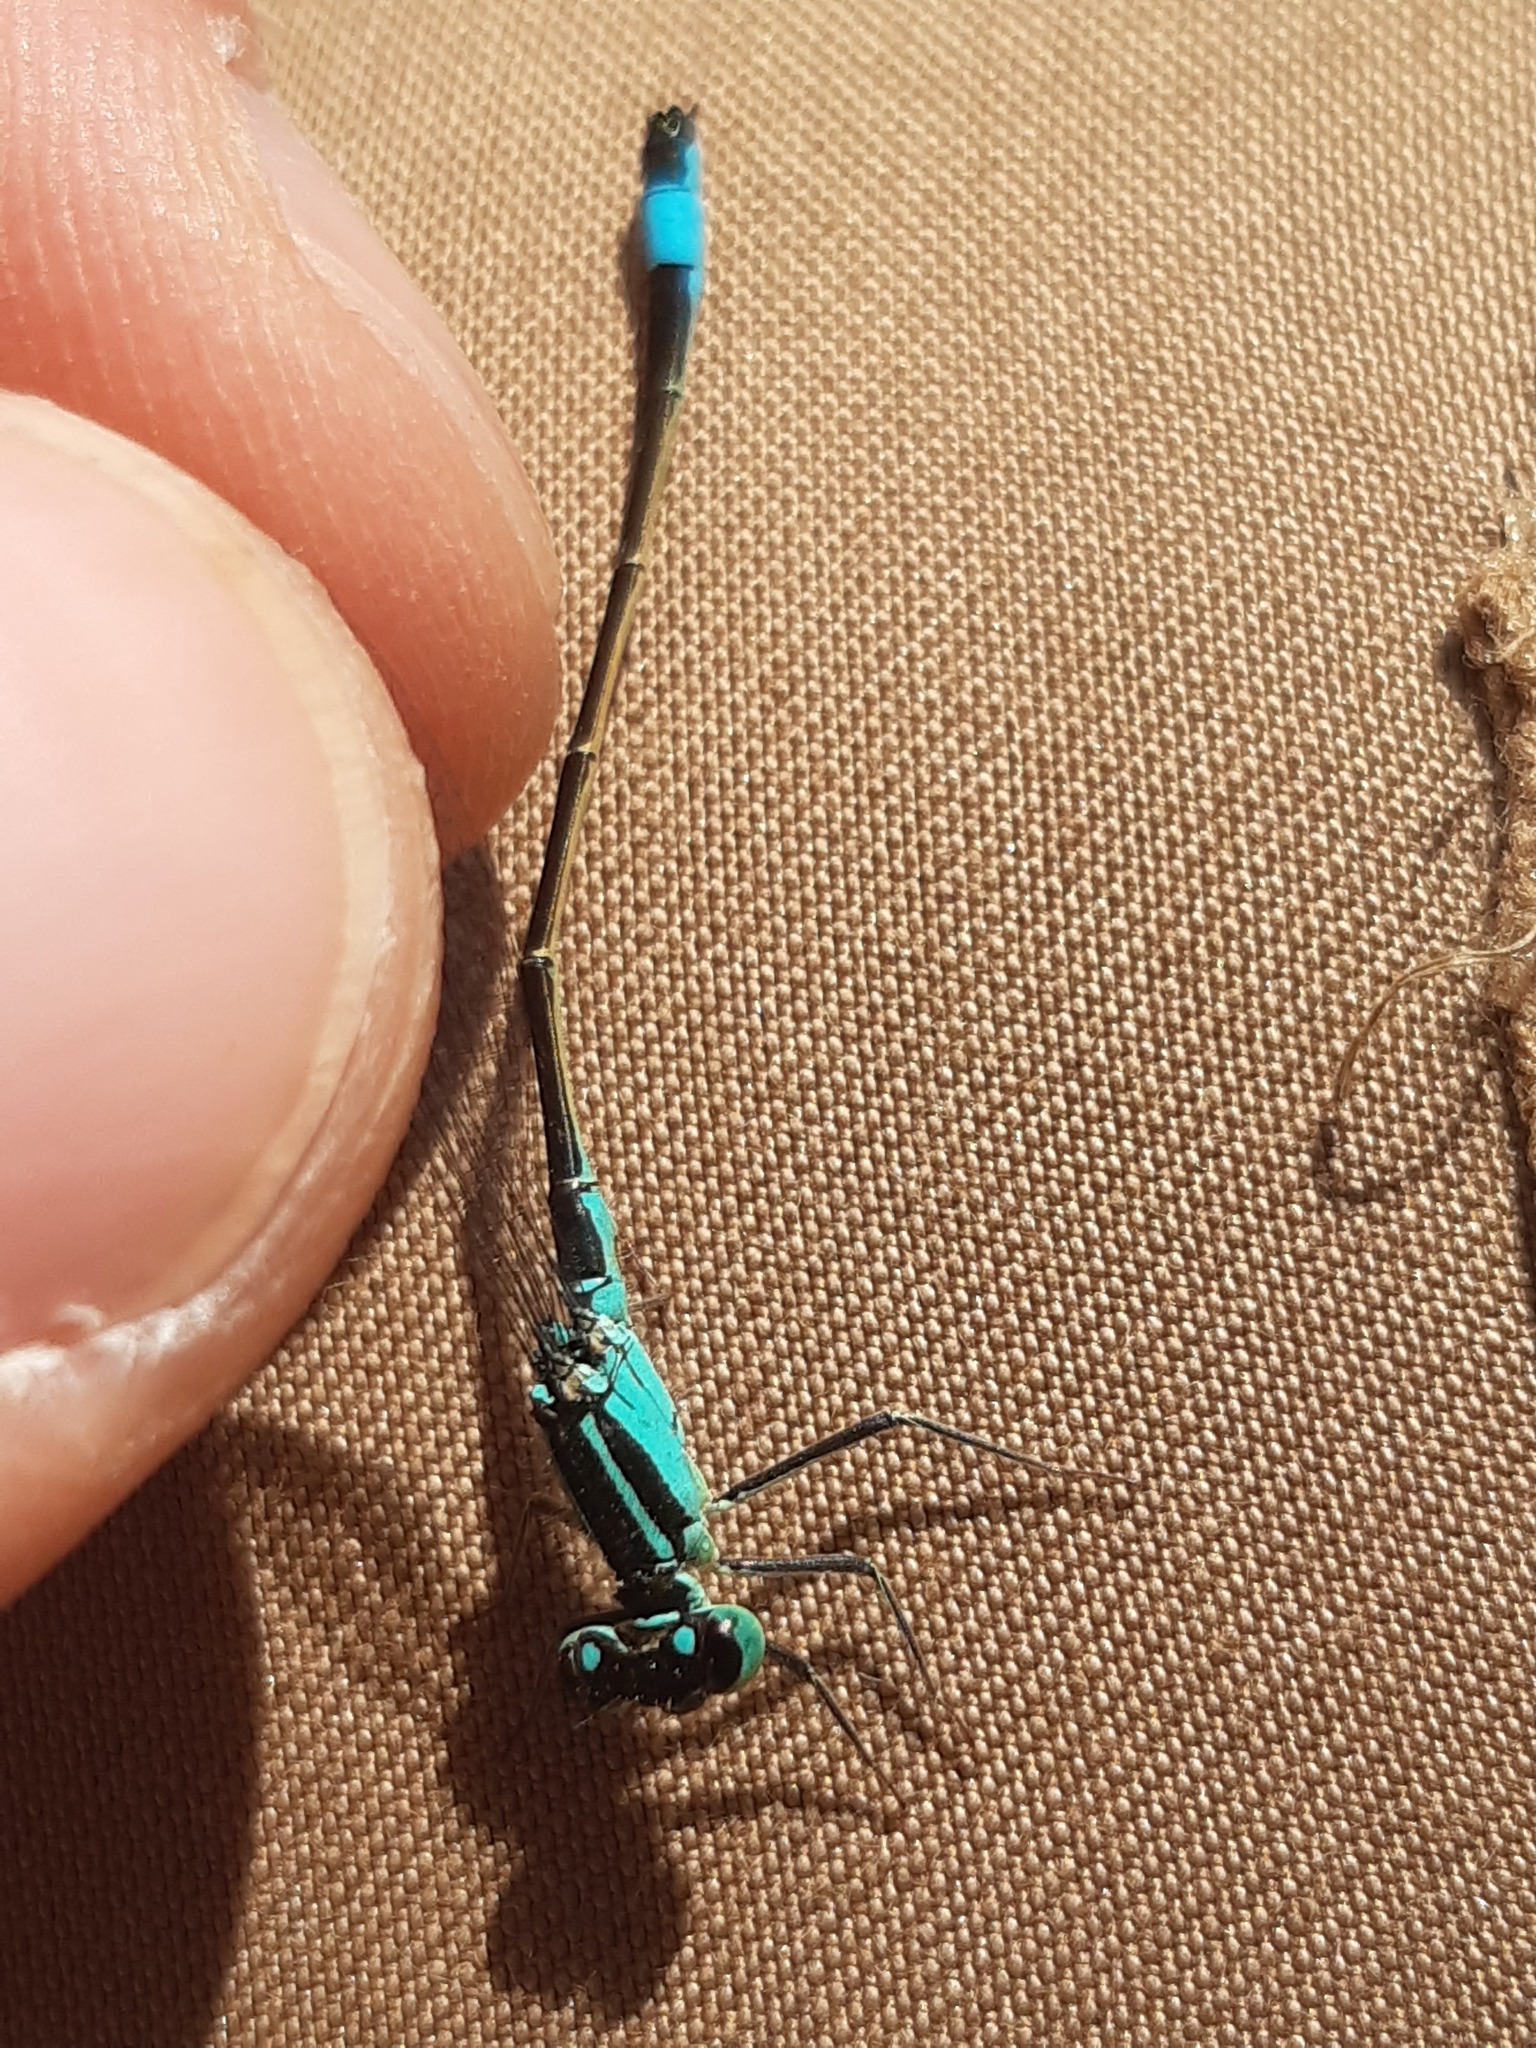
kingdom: Animalia
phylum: Arthropoda
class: Insecta
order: Odonata
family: Coenagrionidae
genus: Ischnura
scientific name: Ischnura elegans
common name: Blue-tailed damselfly
